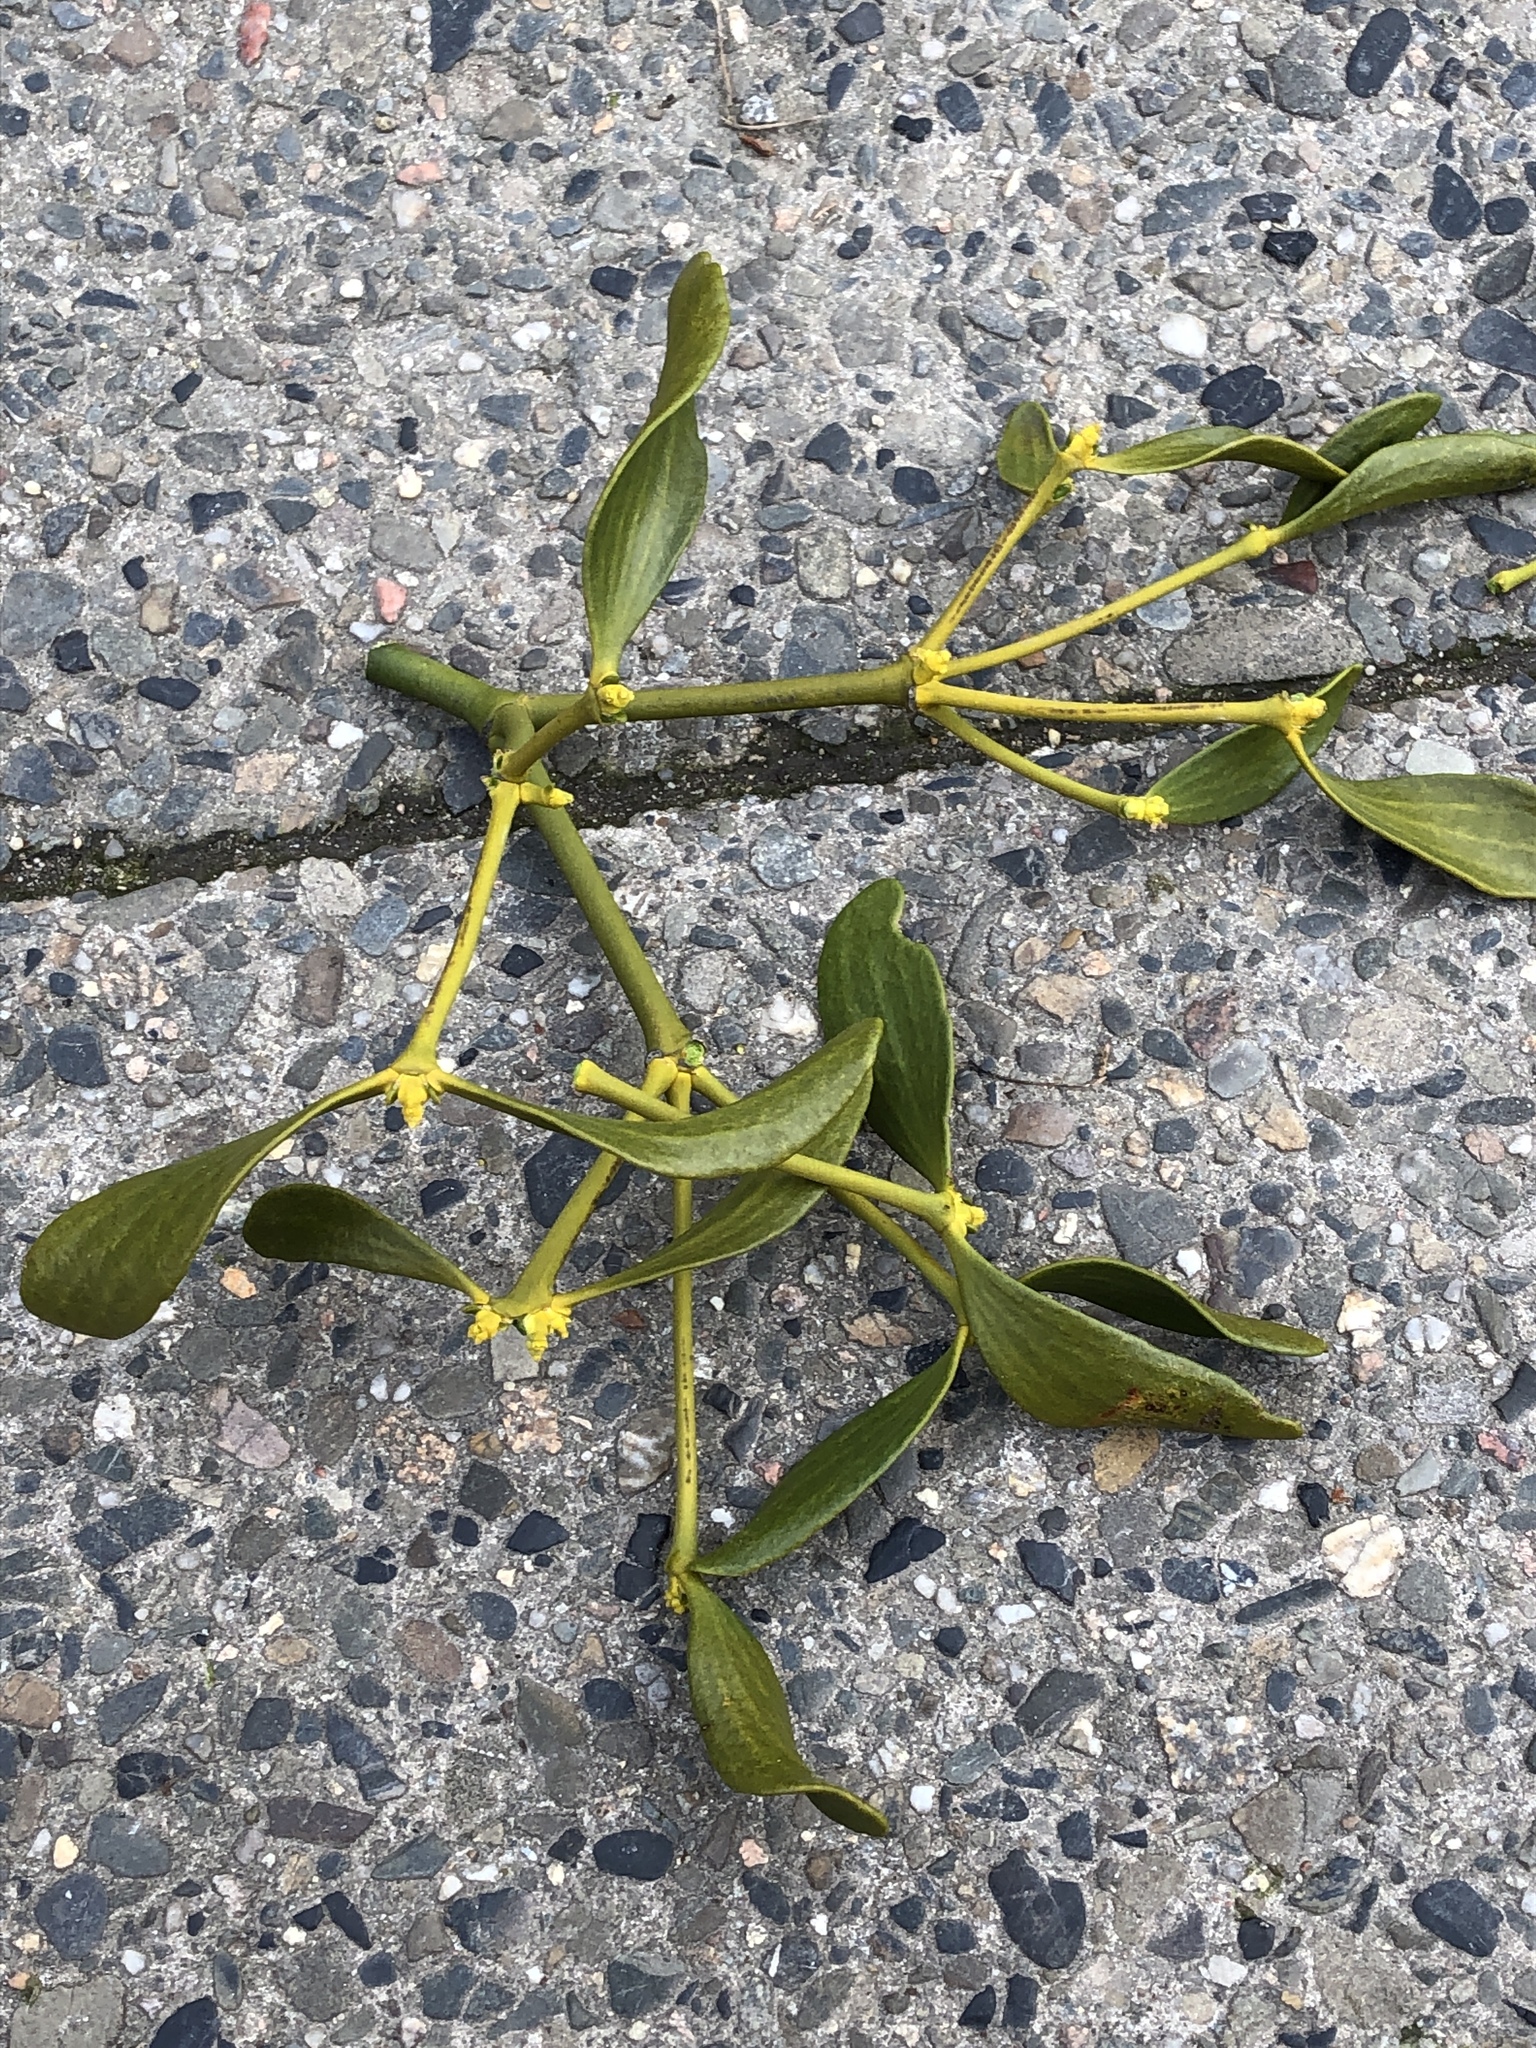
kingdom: Plantae
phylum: Tracheophyta
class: Magnoliopsida
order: Santalales
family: Viscaceae
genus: Viscum
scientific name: Viscum album
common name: Mistletoe
